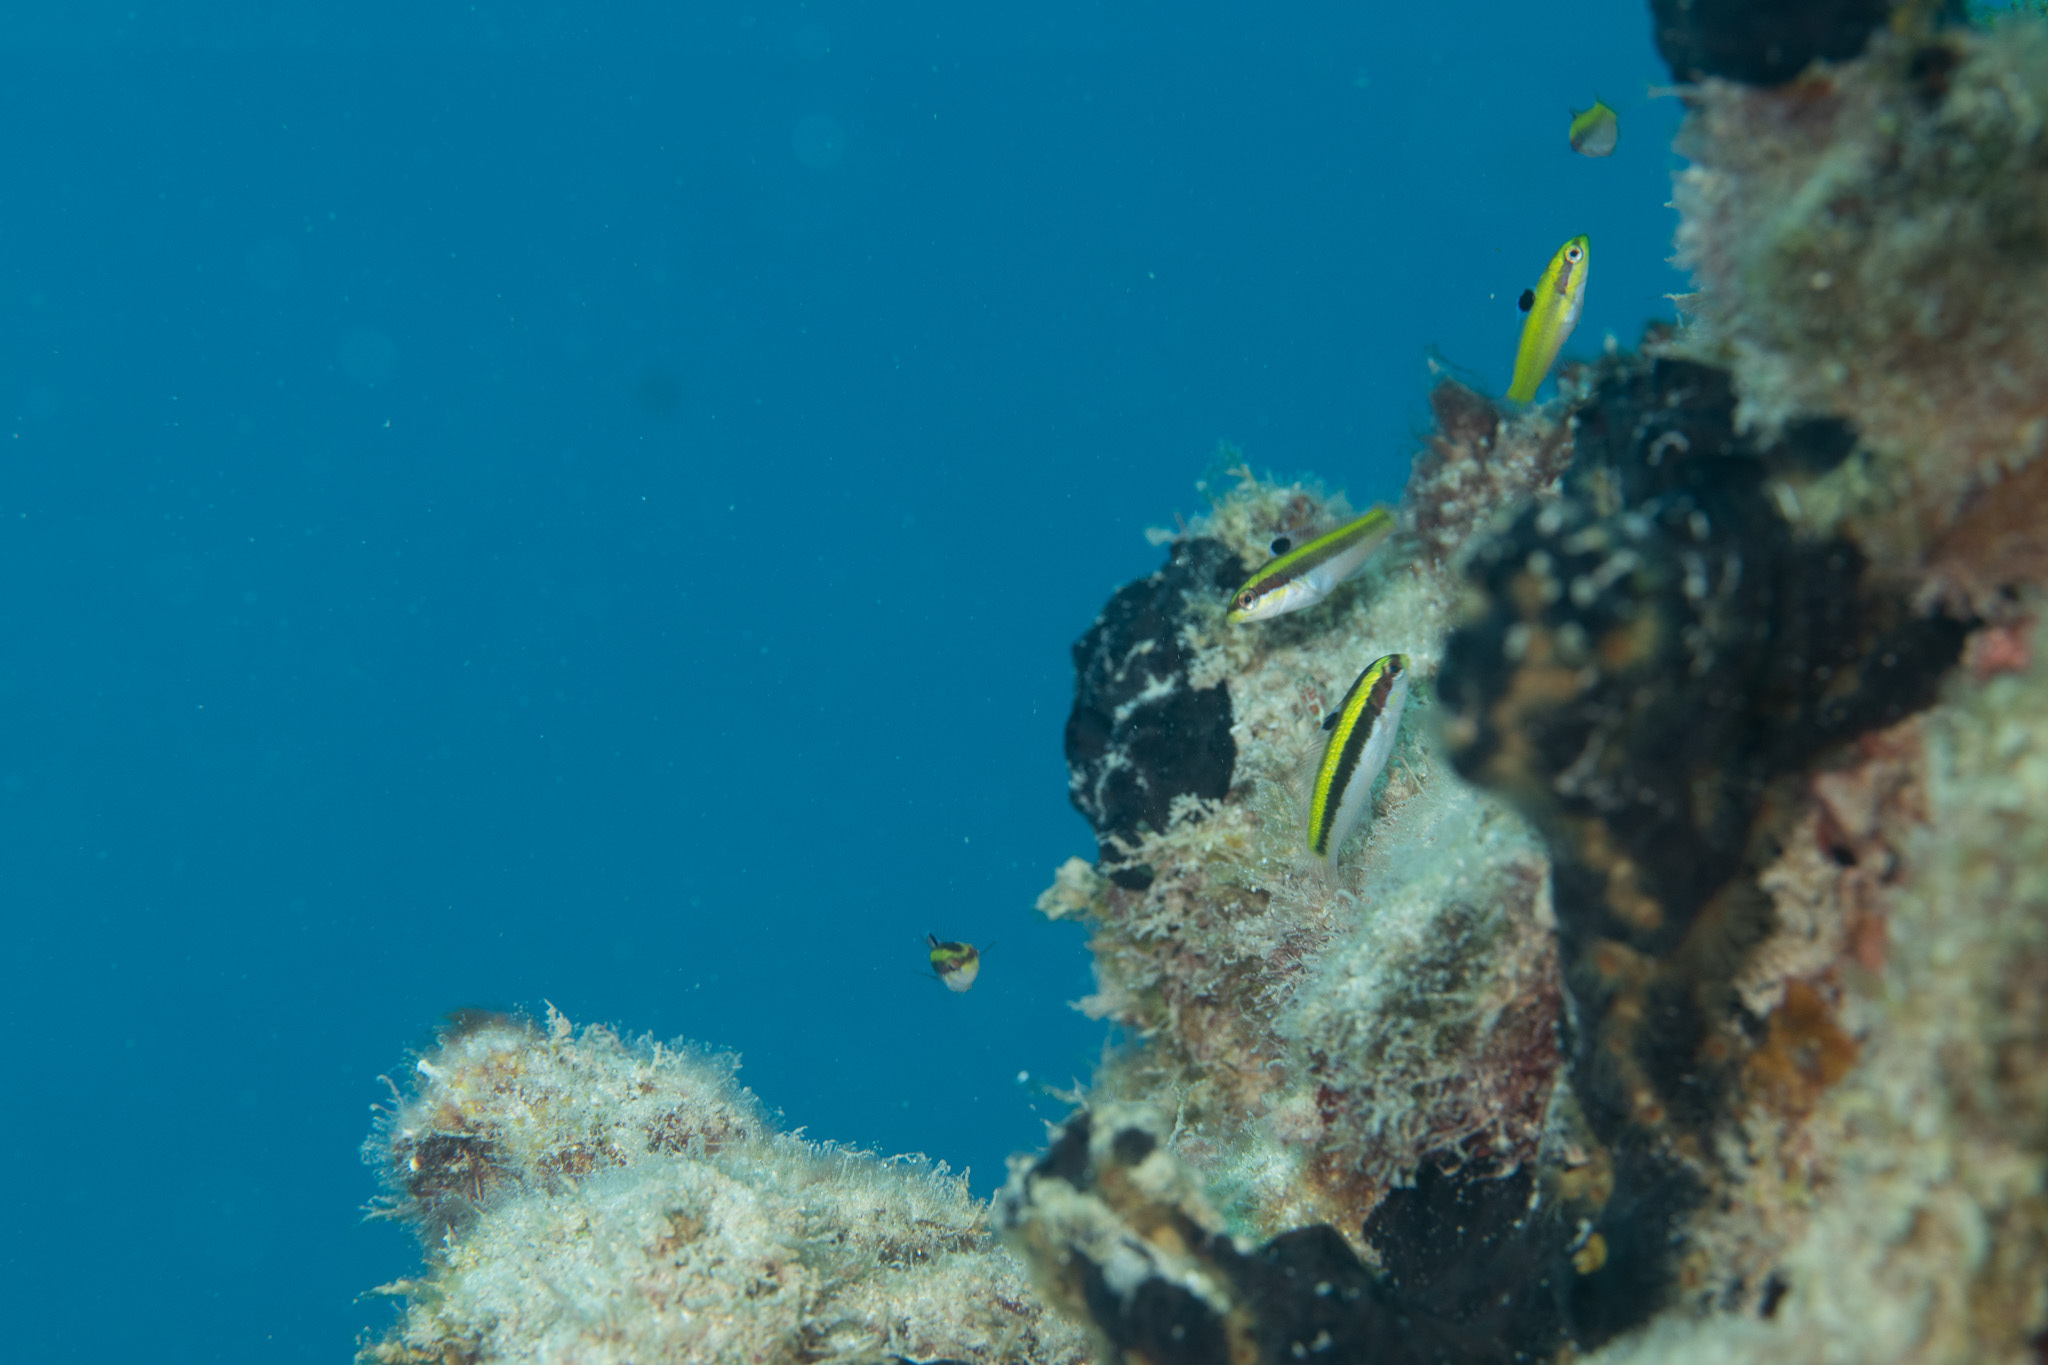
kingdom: Animalia
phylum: Chordata
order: Perciformes
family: Labridae
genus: Thalassoma
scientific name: Thalassoma bifasciatum
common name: Bluehead wrasse
